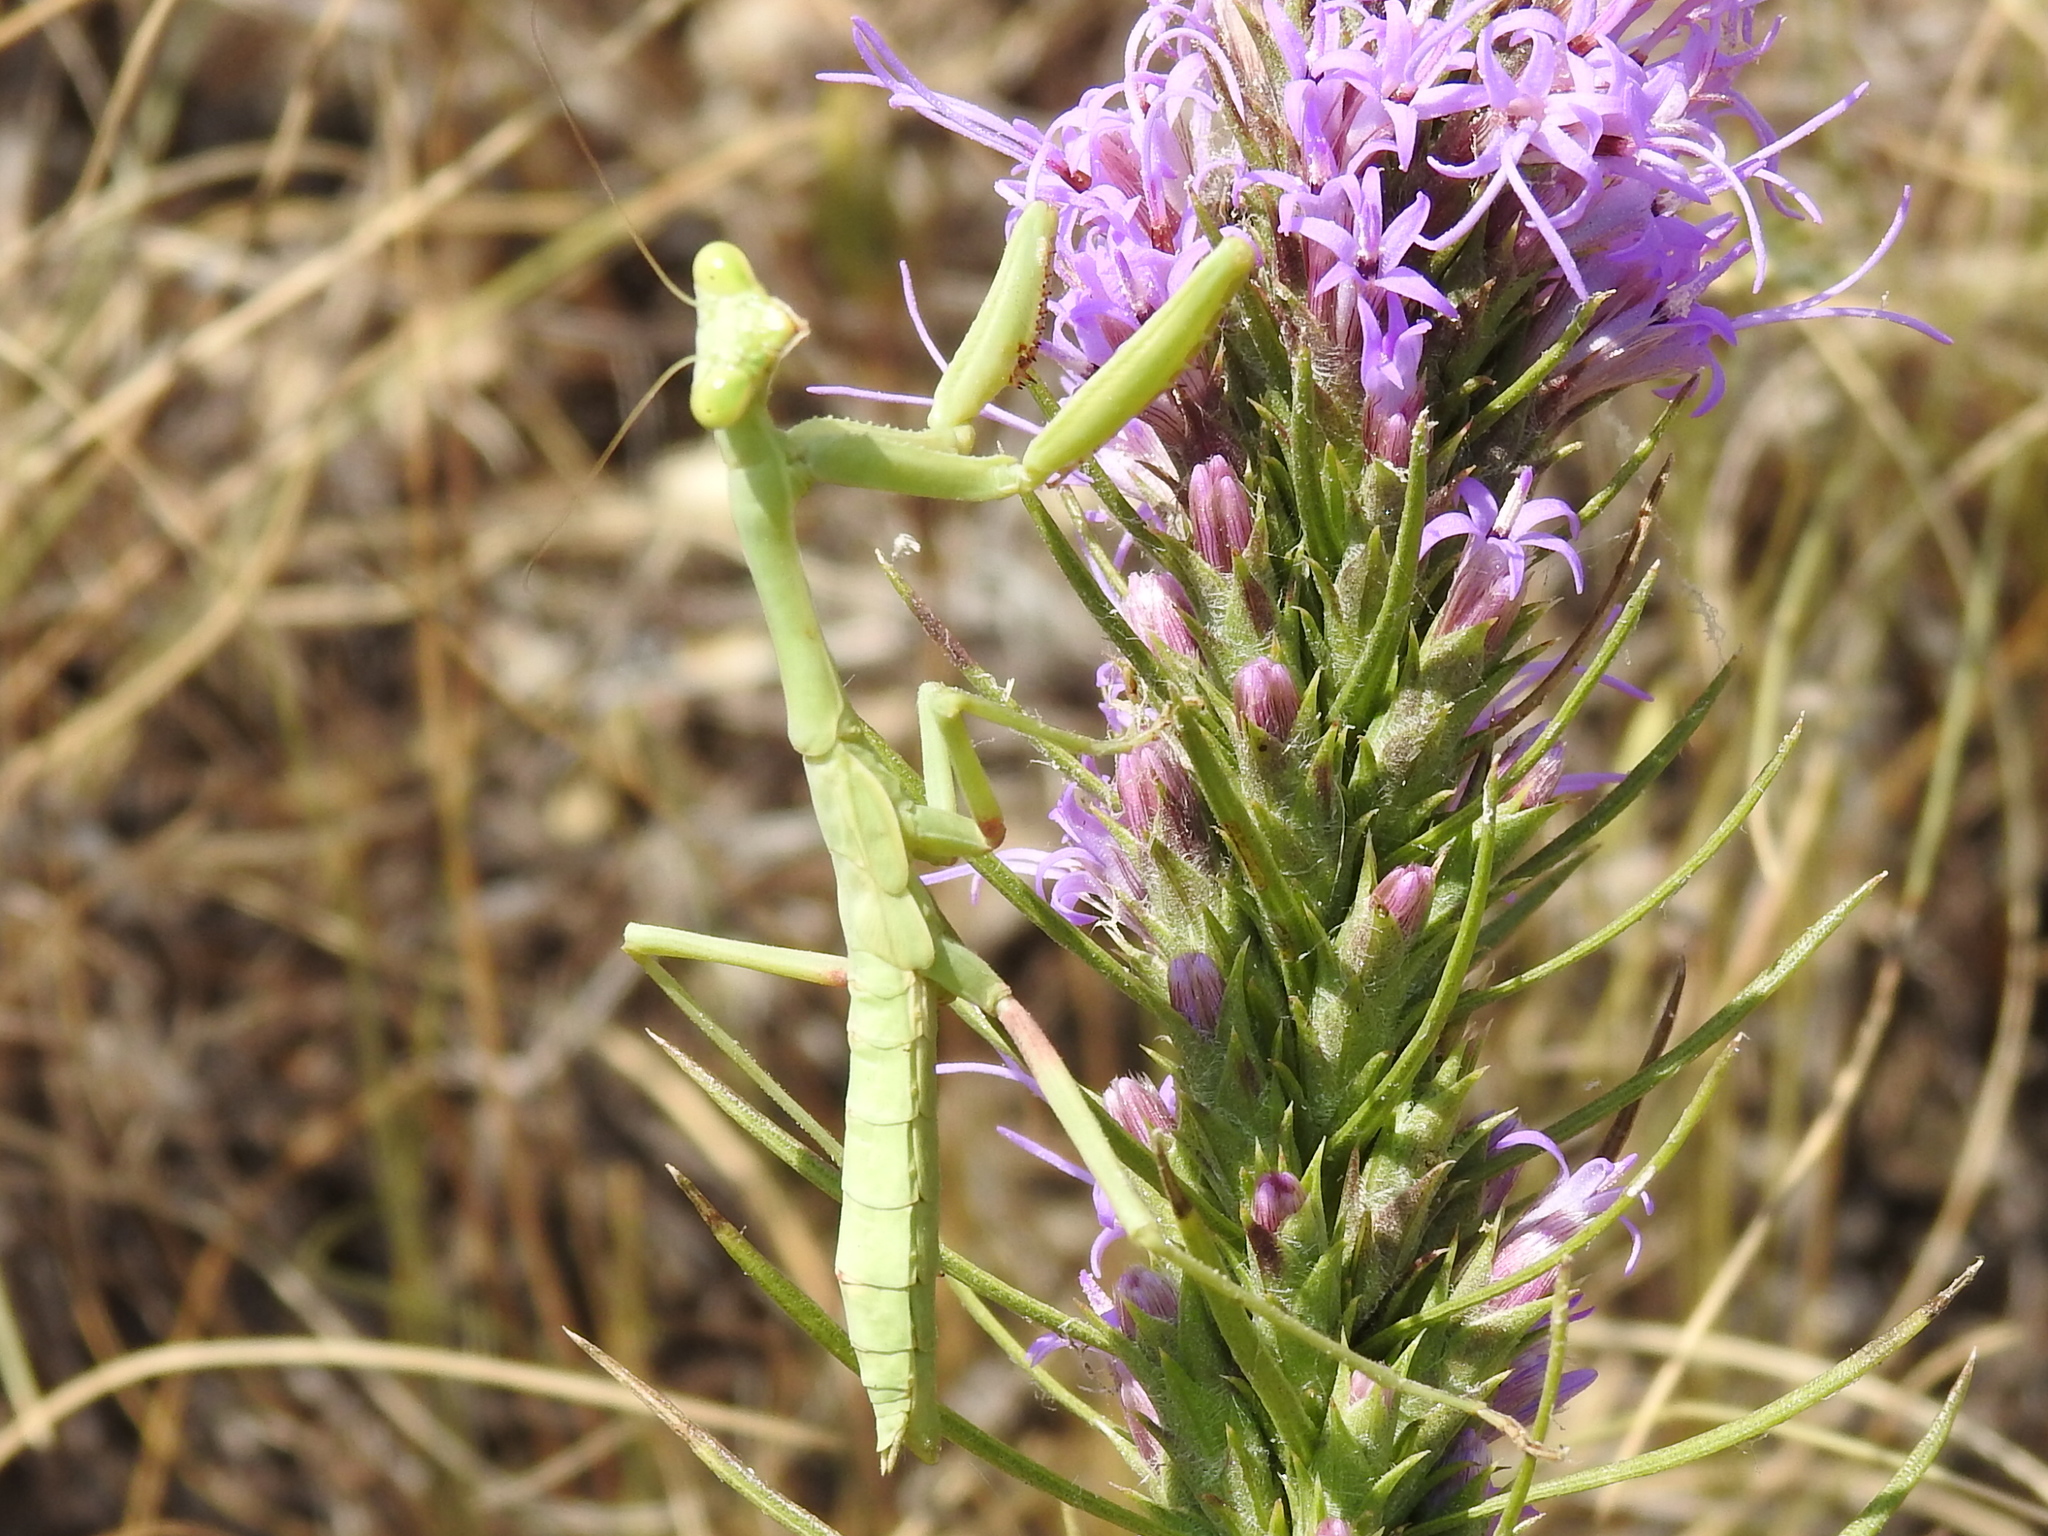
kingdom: Animalia
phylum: Arthropoda
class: Insecta
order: Mantodea
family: Mantidae
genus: Stagmomantis
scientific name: Stagmomantis carolina
